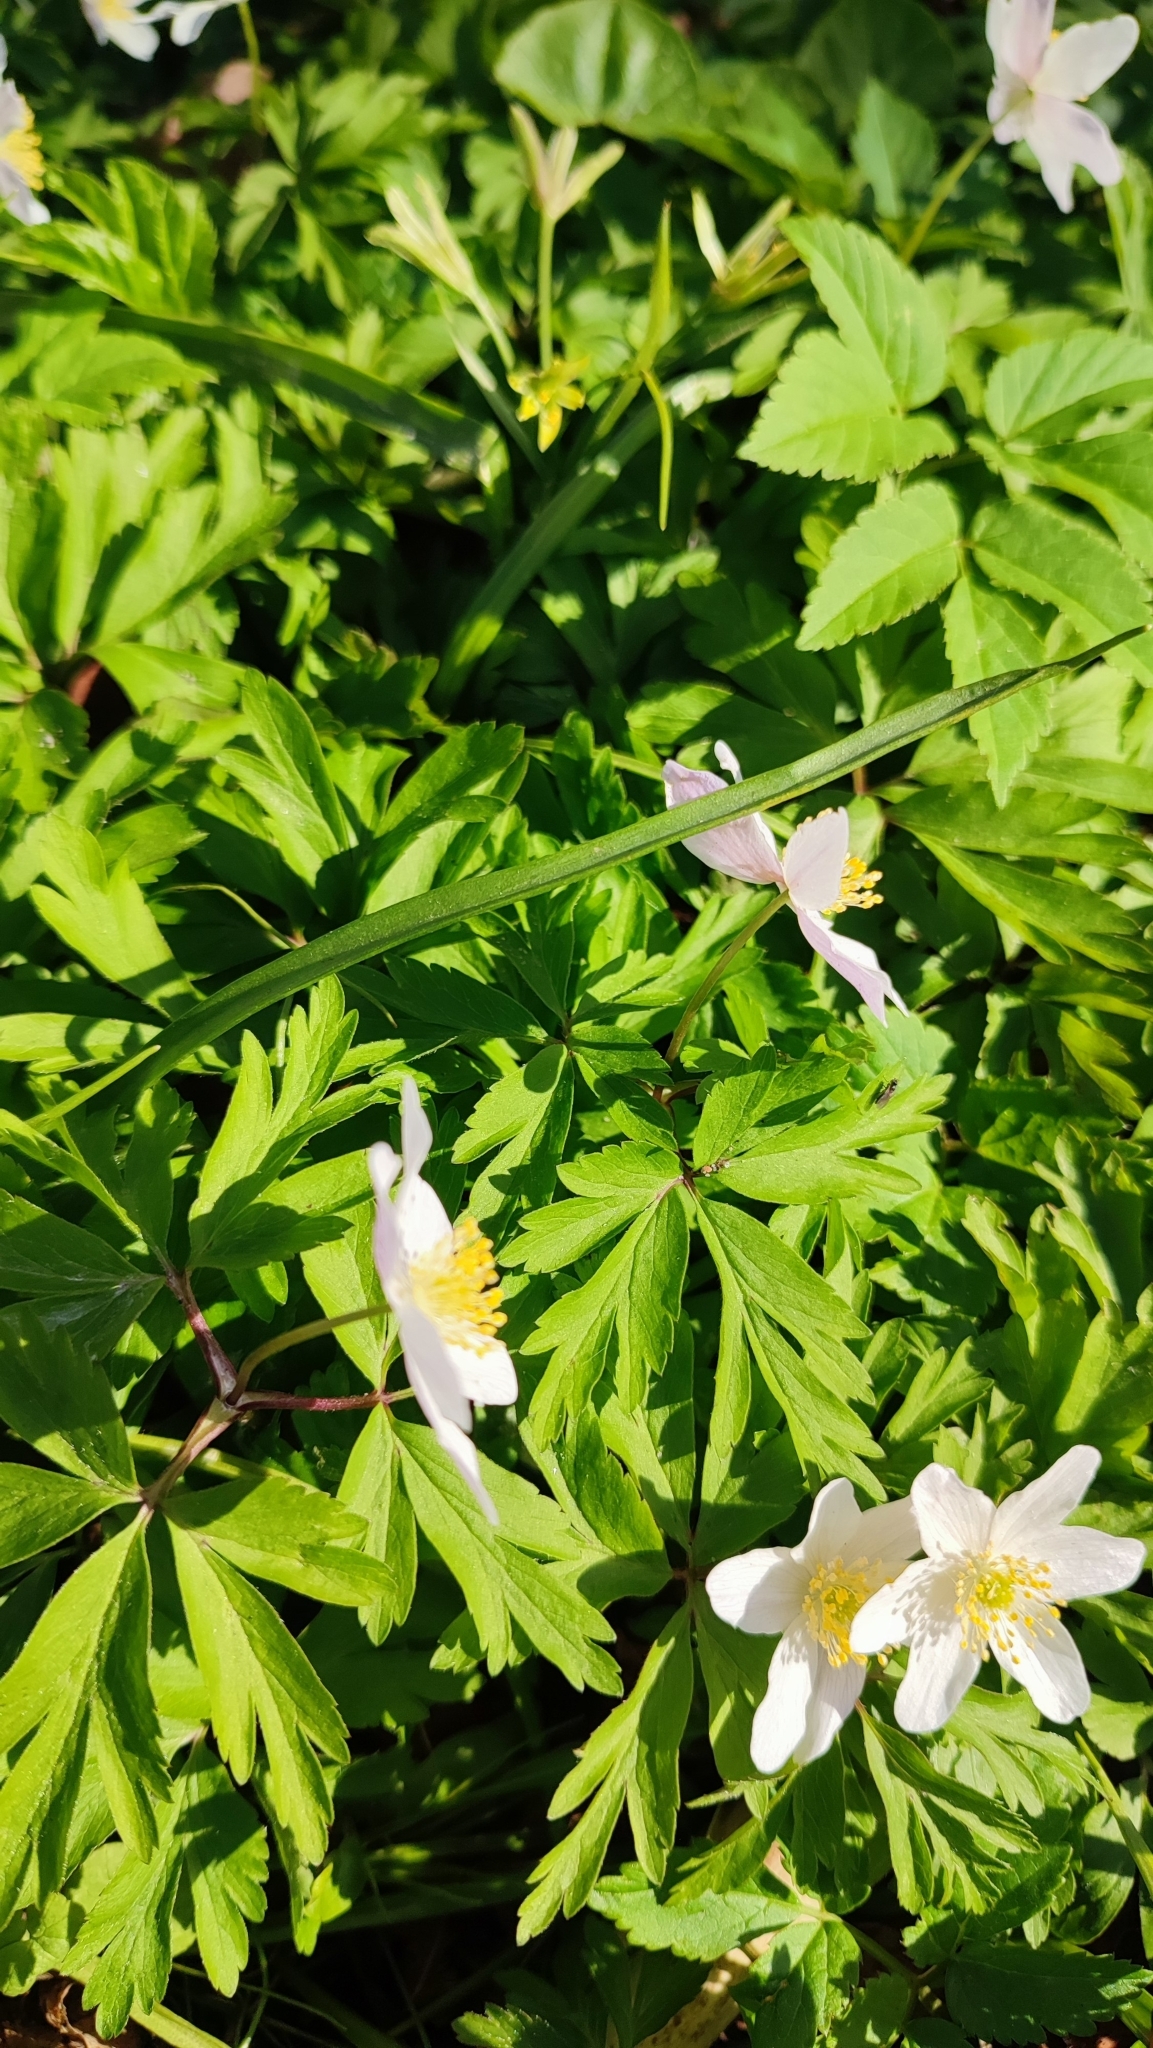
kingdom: Plantae
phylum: Tracheophyta
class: Magnoliopsida
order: Ranunculales
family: Ranunculaceae
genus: Anemone
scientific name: Anemone nemorosa
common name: Wood anemone
